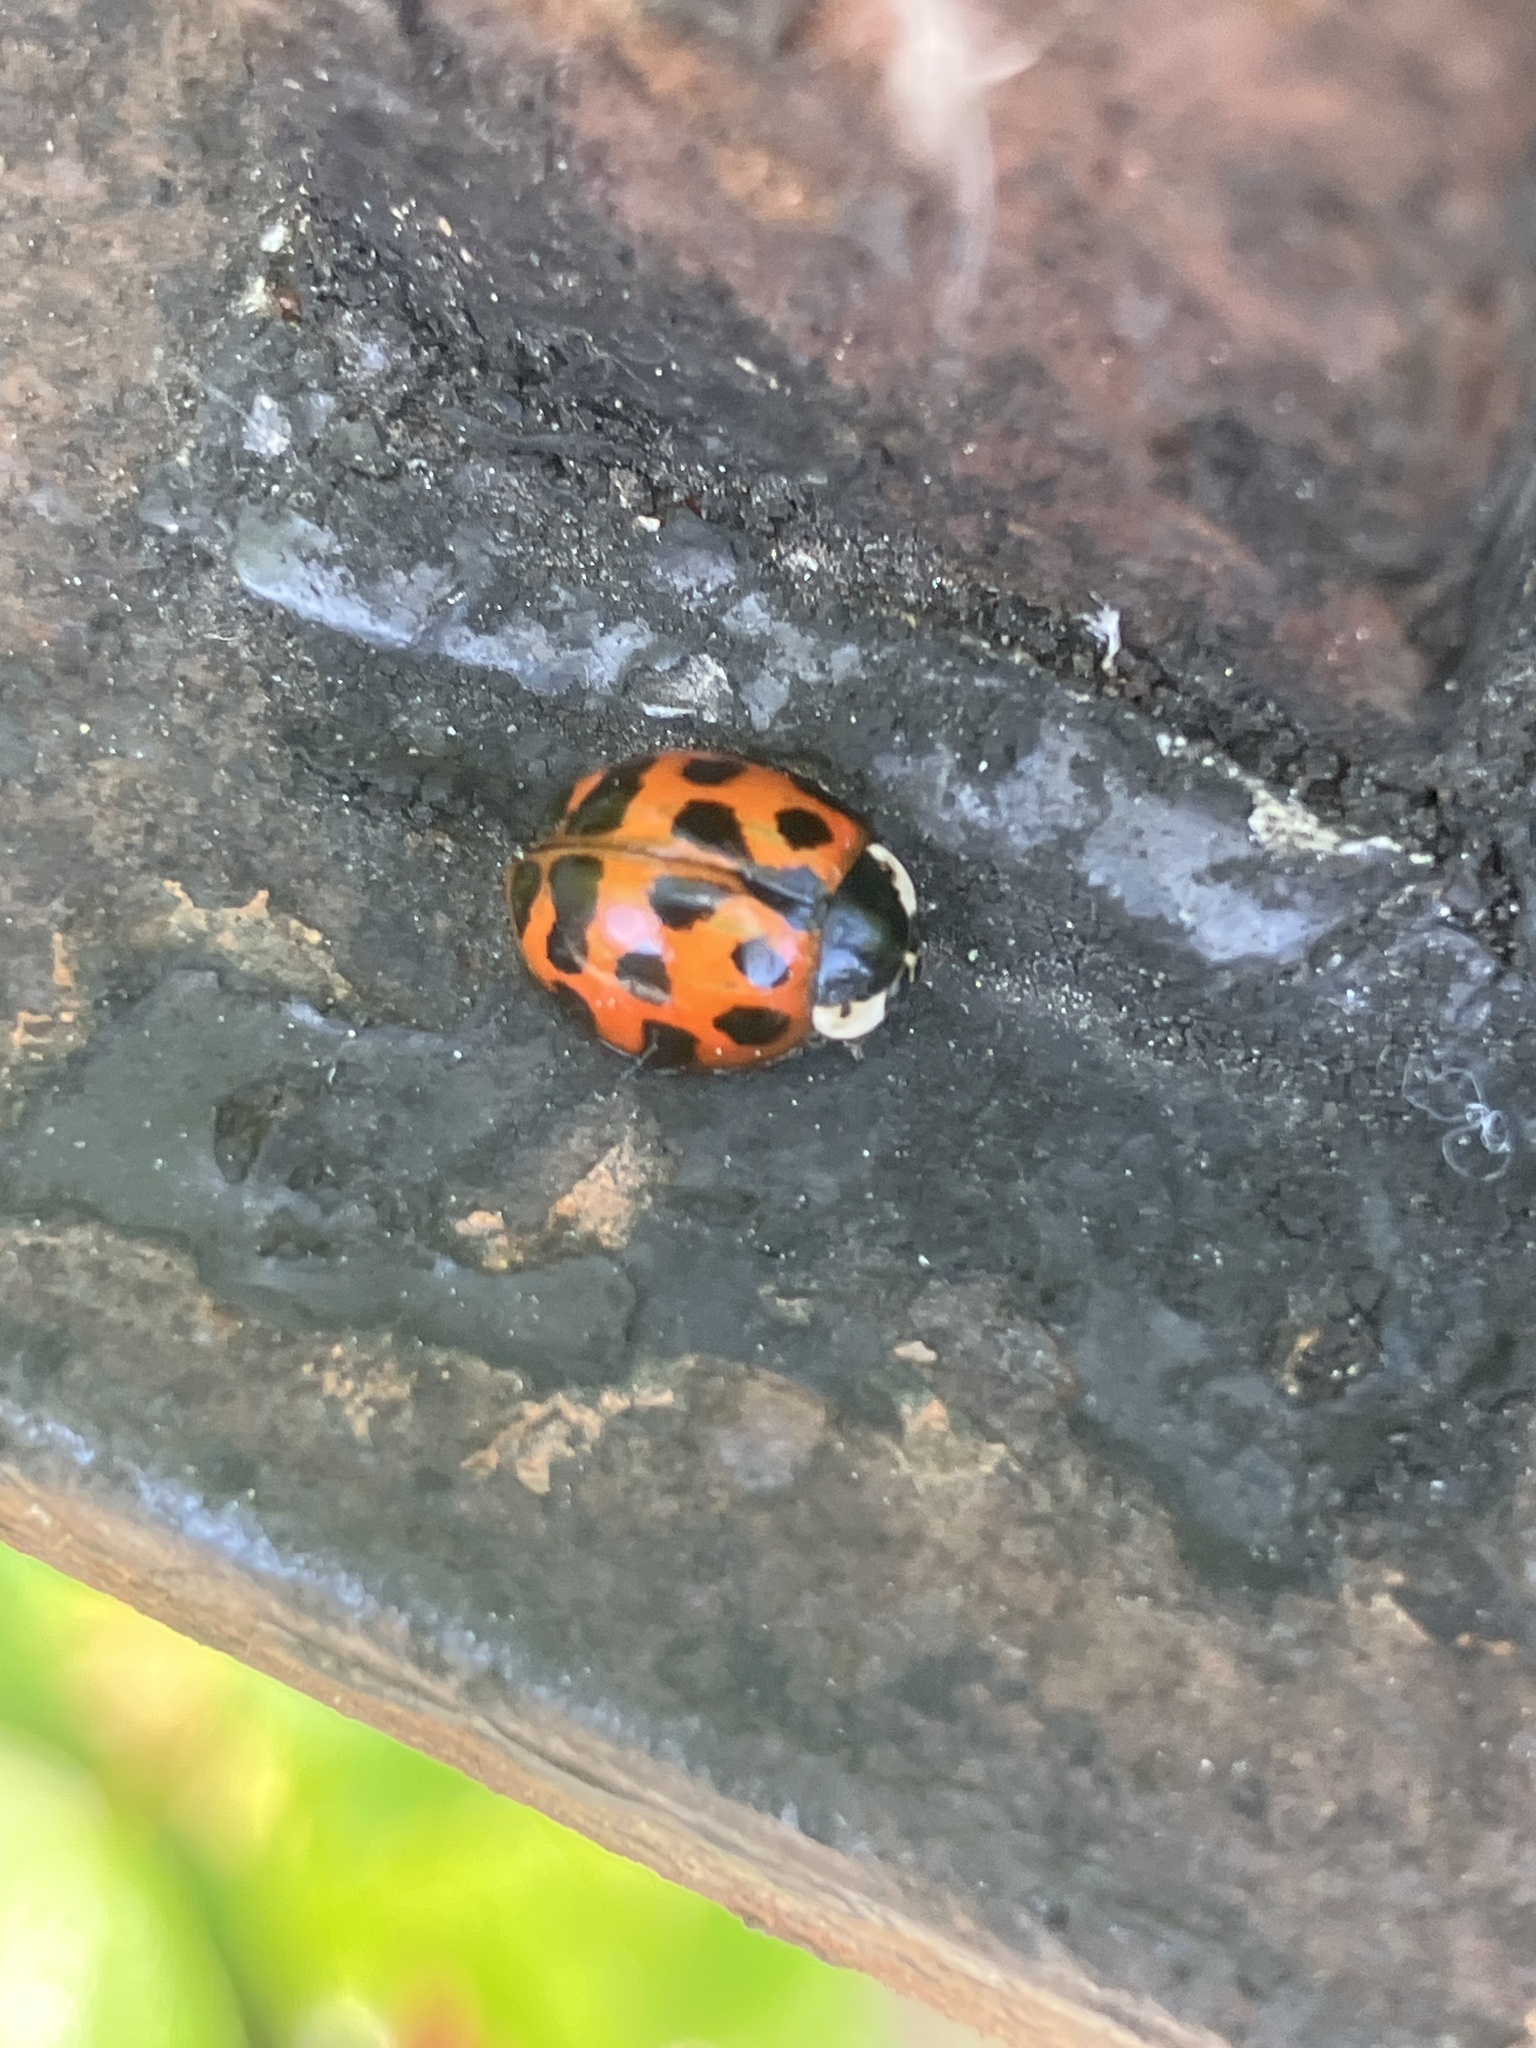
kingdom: Animalia
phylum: Arthropoda
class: Insecta
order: Coleoptera
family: Coccinellidae
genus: Harmonia
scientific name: Harmonia axyridis
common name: Harlequin ladybird
